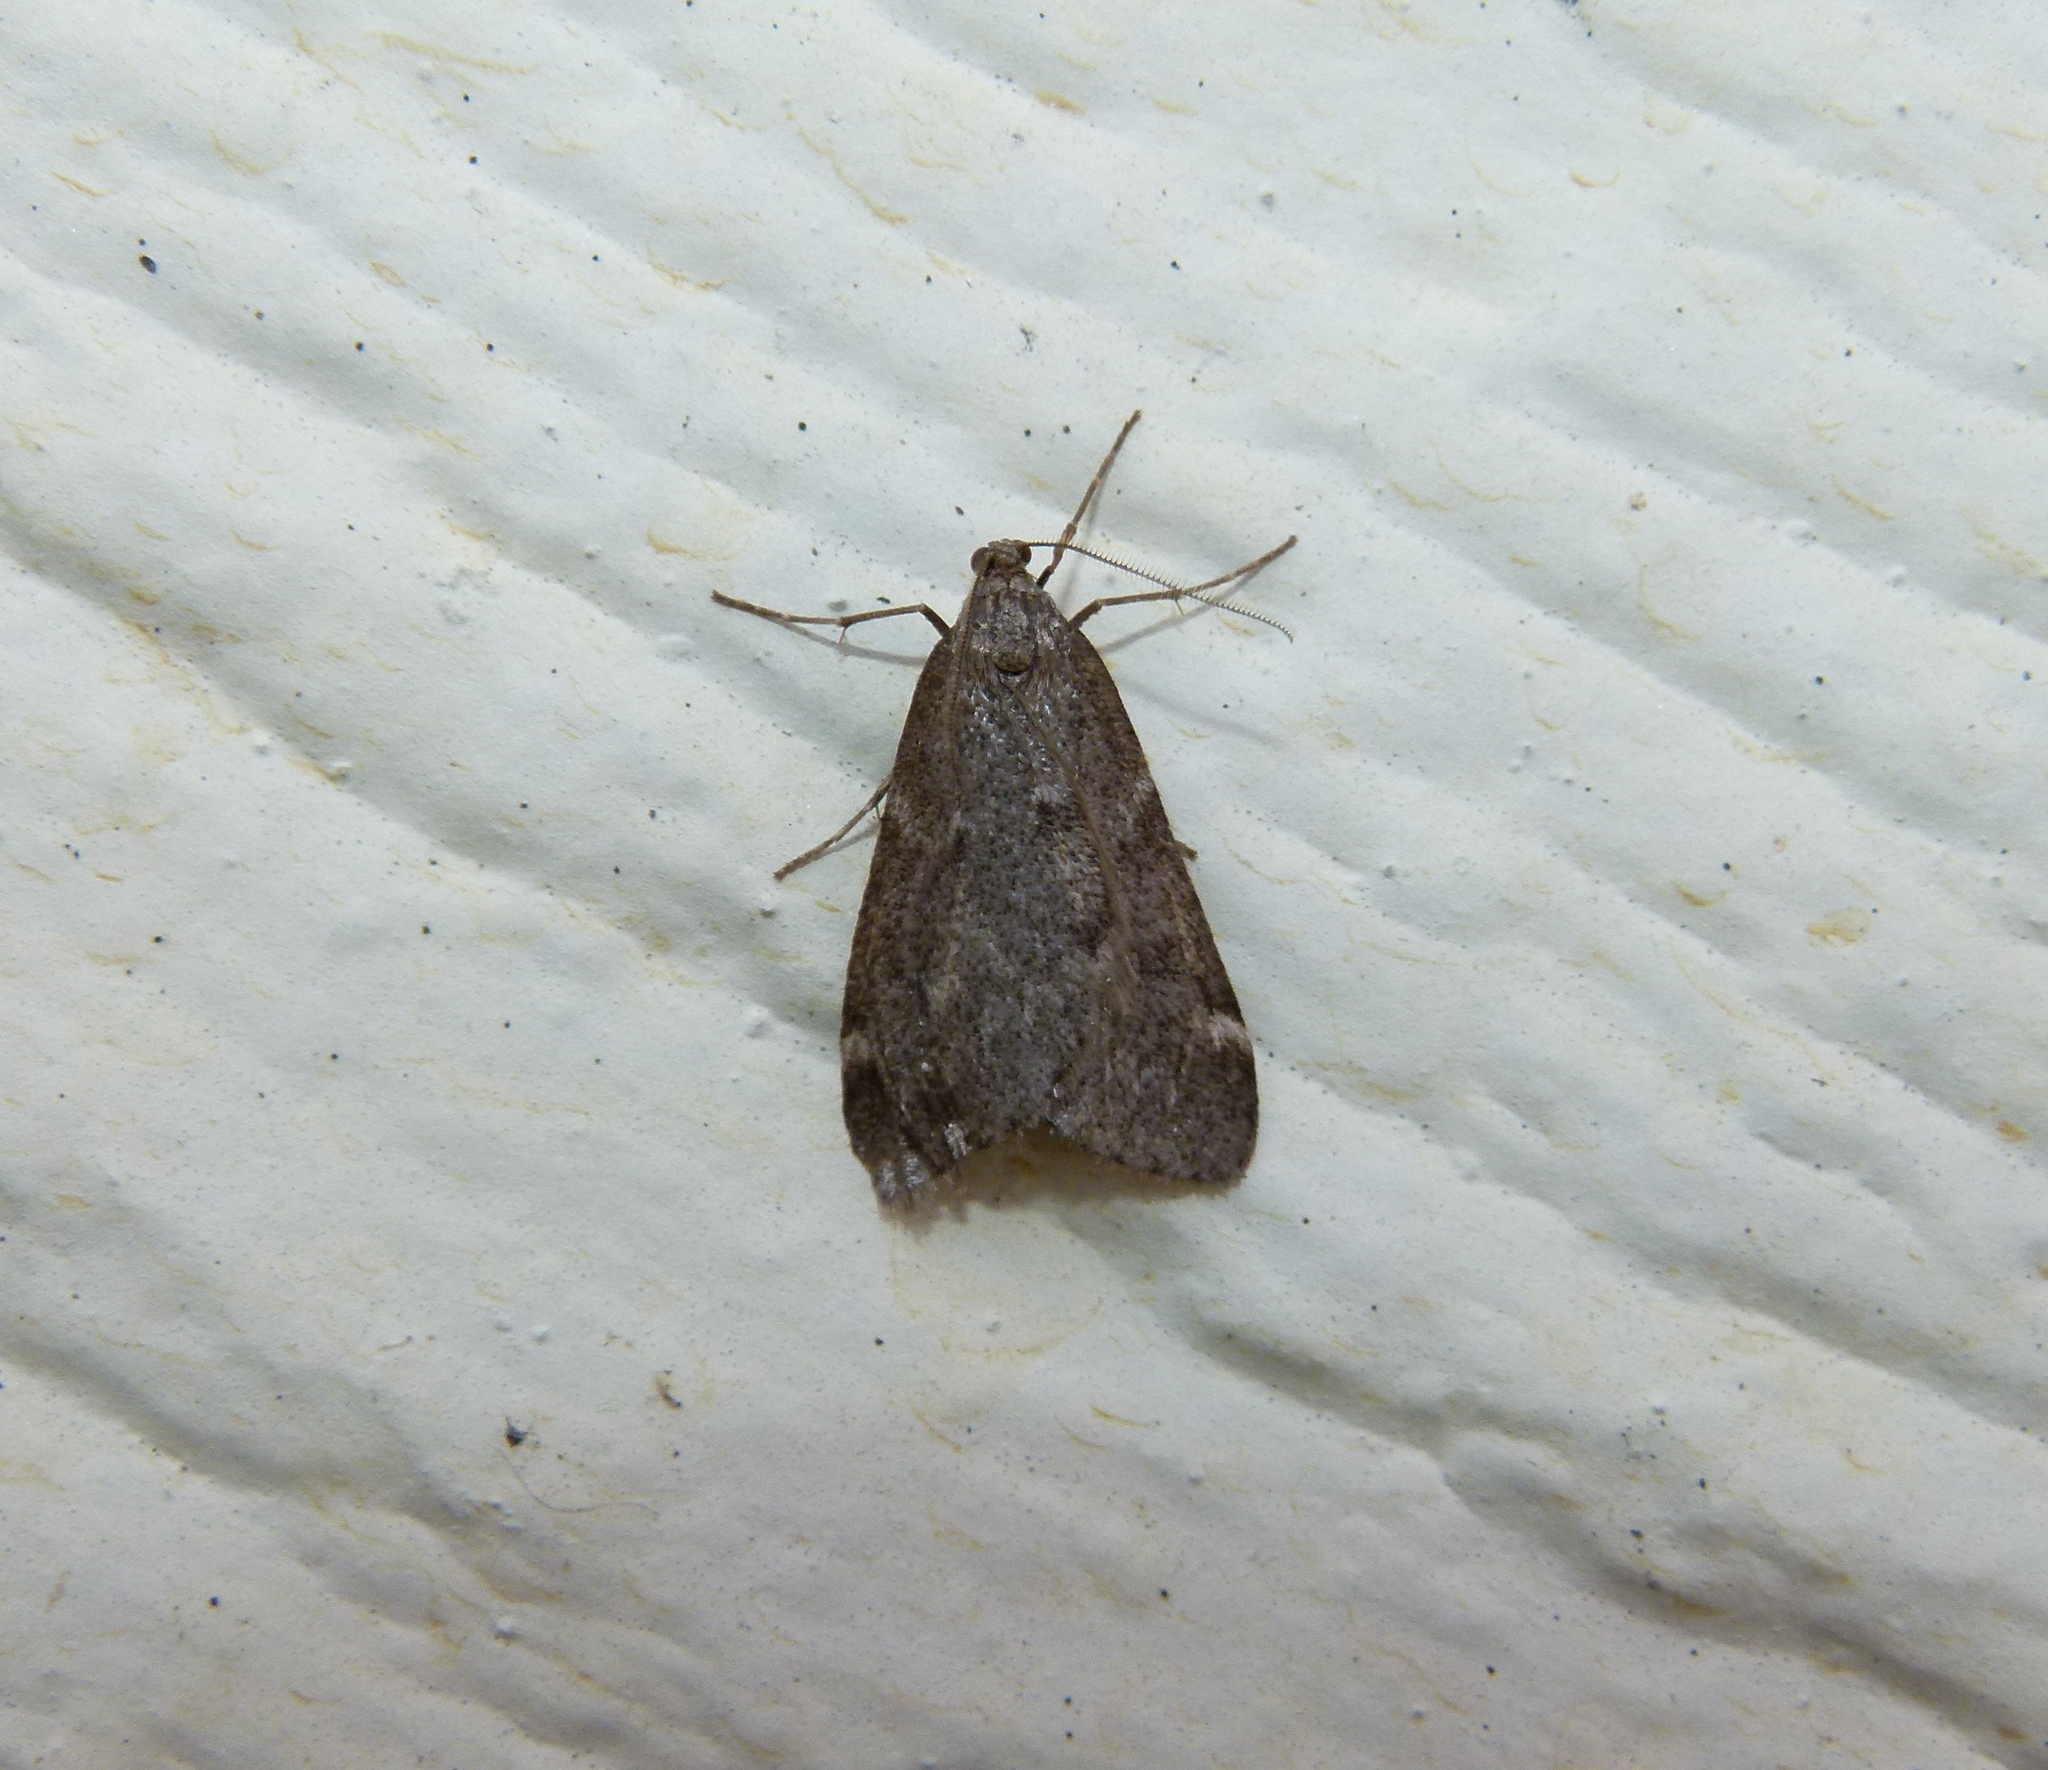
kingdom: Animalia
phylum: Arthropoda
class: Insecta
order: Lepidoptera
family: Geometridae
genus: Alsophila
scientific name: Alsophila pometaria
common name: Fall cankerworm
